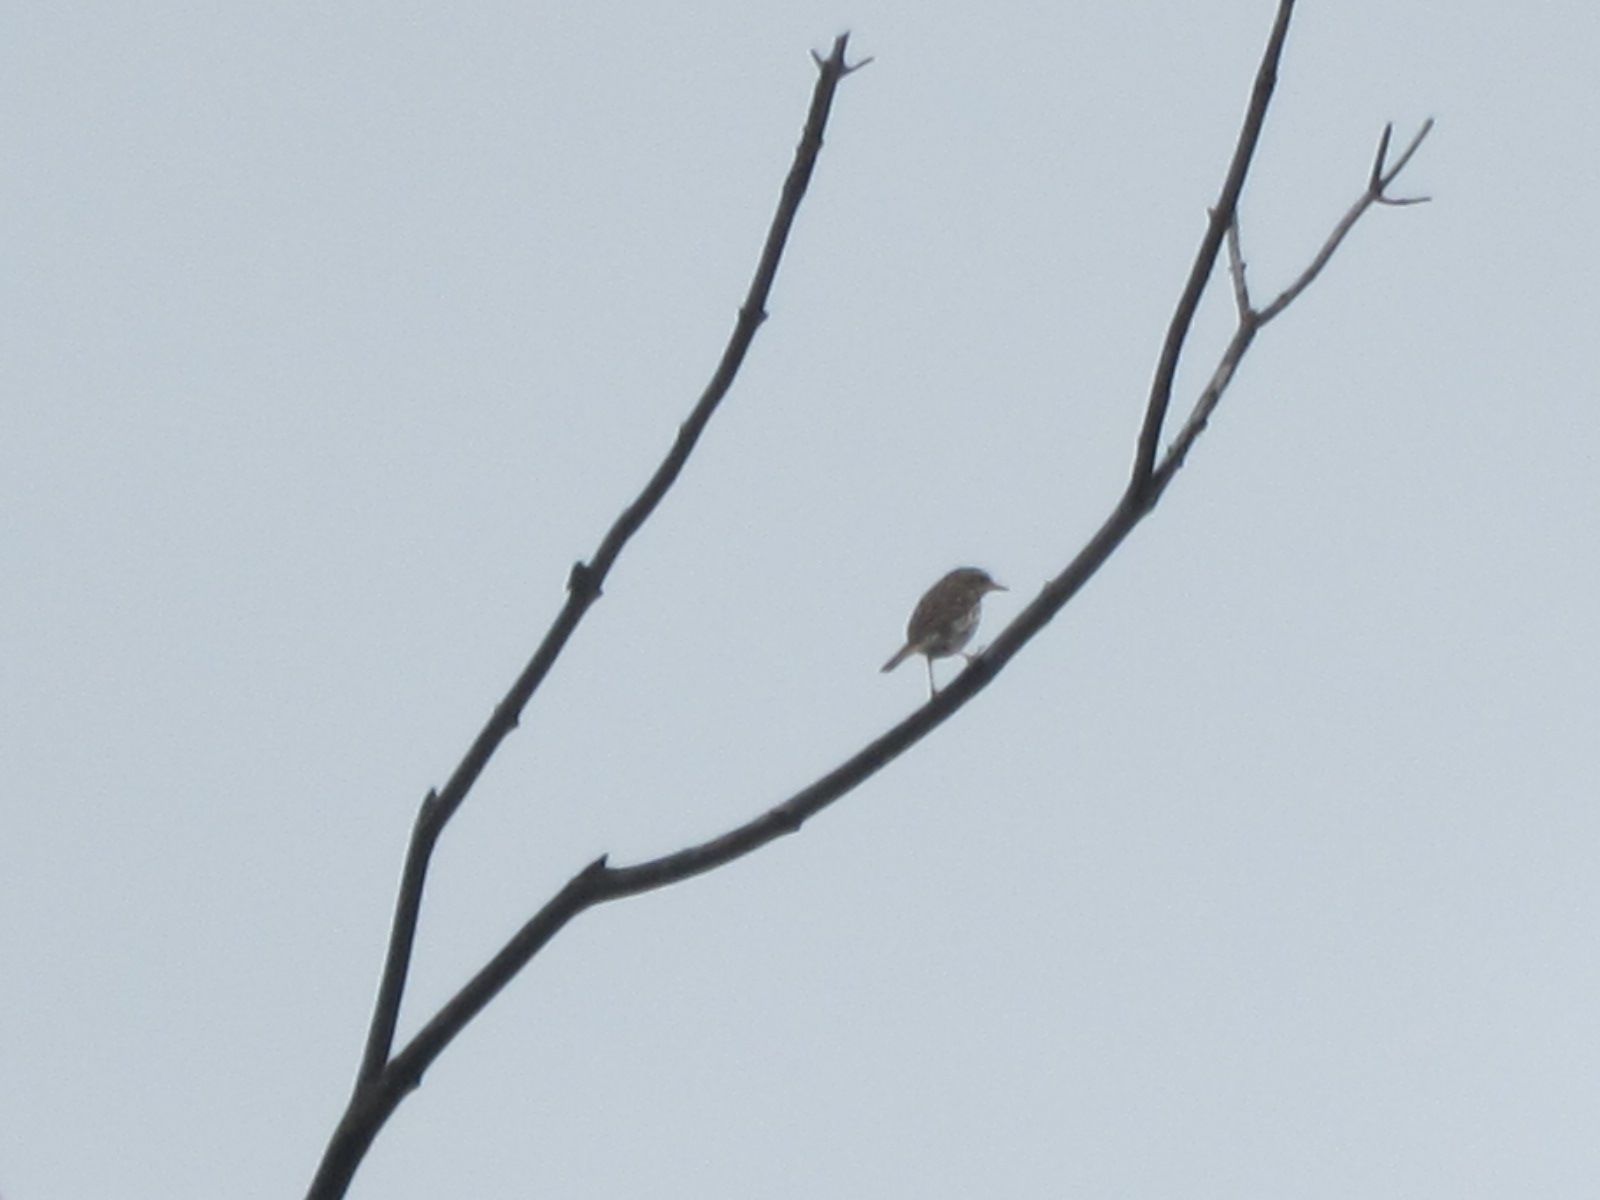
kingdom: Animalia
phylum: Chordata
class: Aves
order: Passeriformes
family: Motacillidae
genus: Anthus
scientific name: Anthus hodgsoni
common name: Olive-backed pipit
